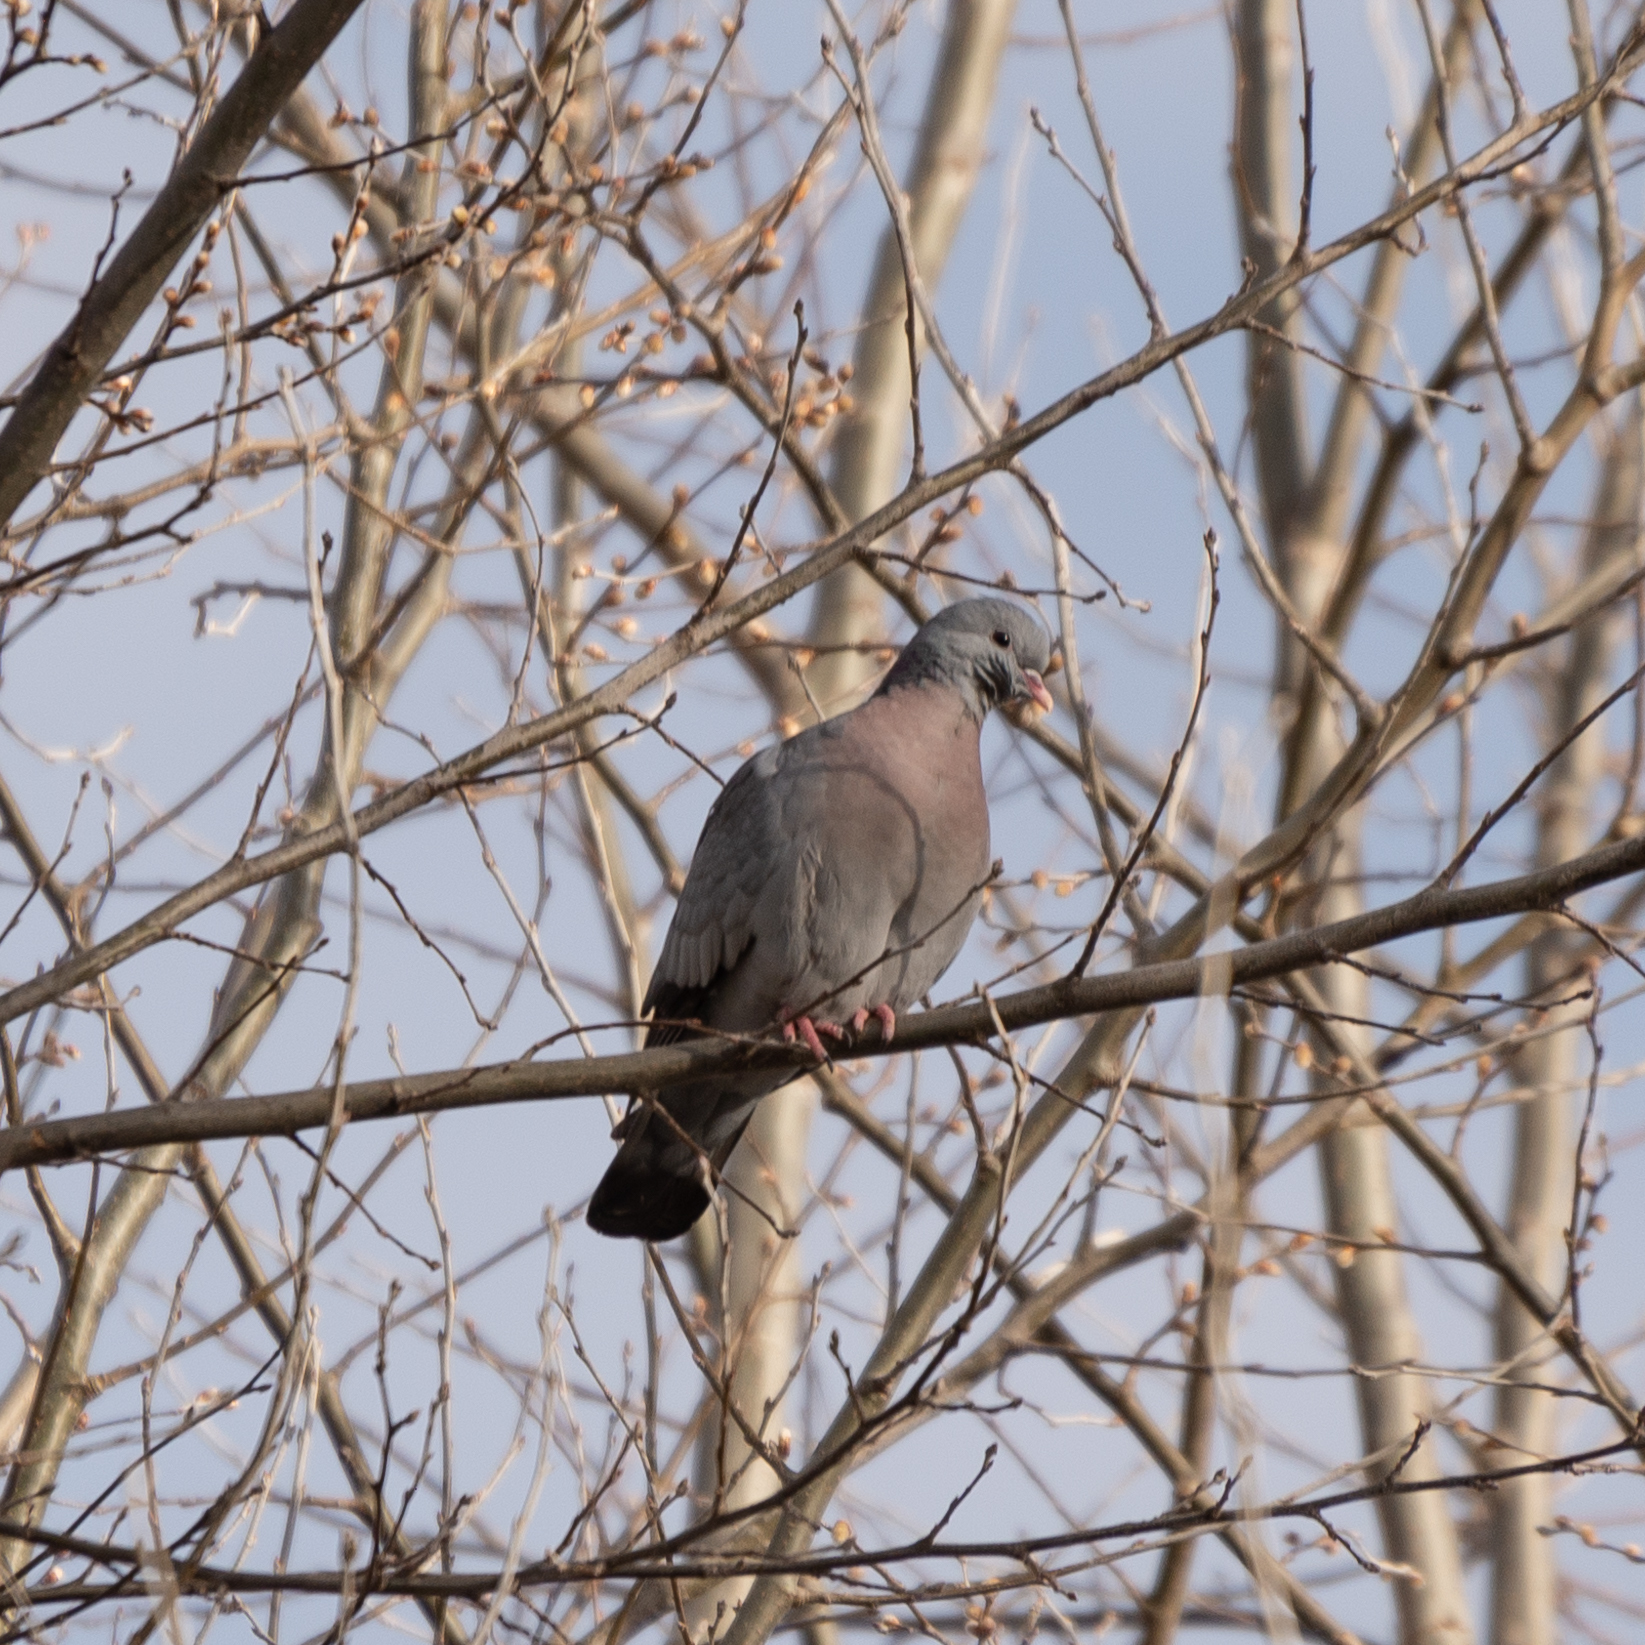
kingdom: Animalia
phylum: Chordata
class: Aves
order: Columbiformes
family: Columbidae
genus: Columba
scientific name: Columba oenas
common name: Stock dove
